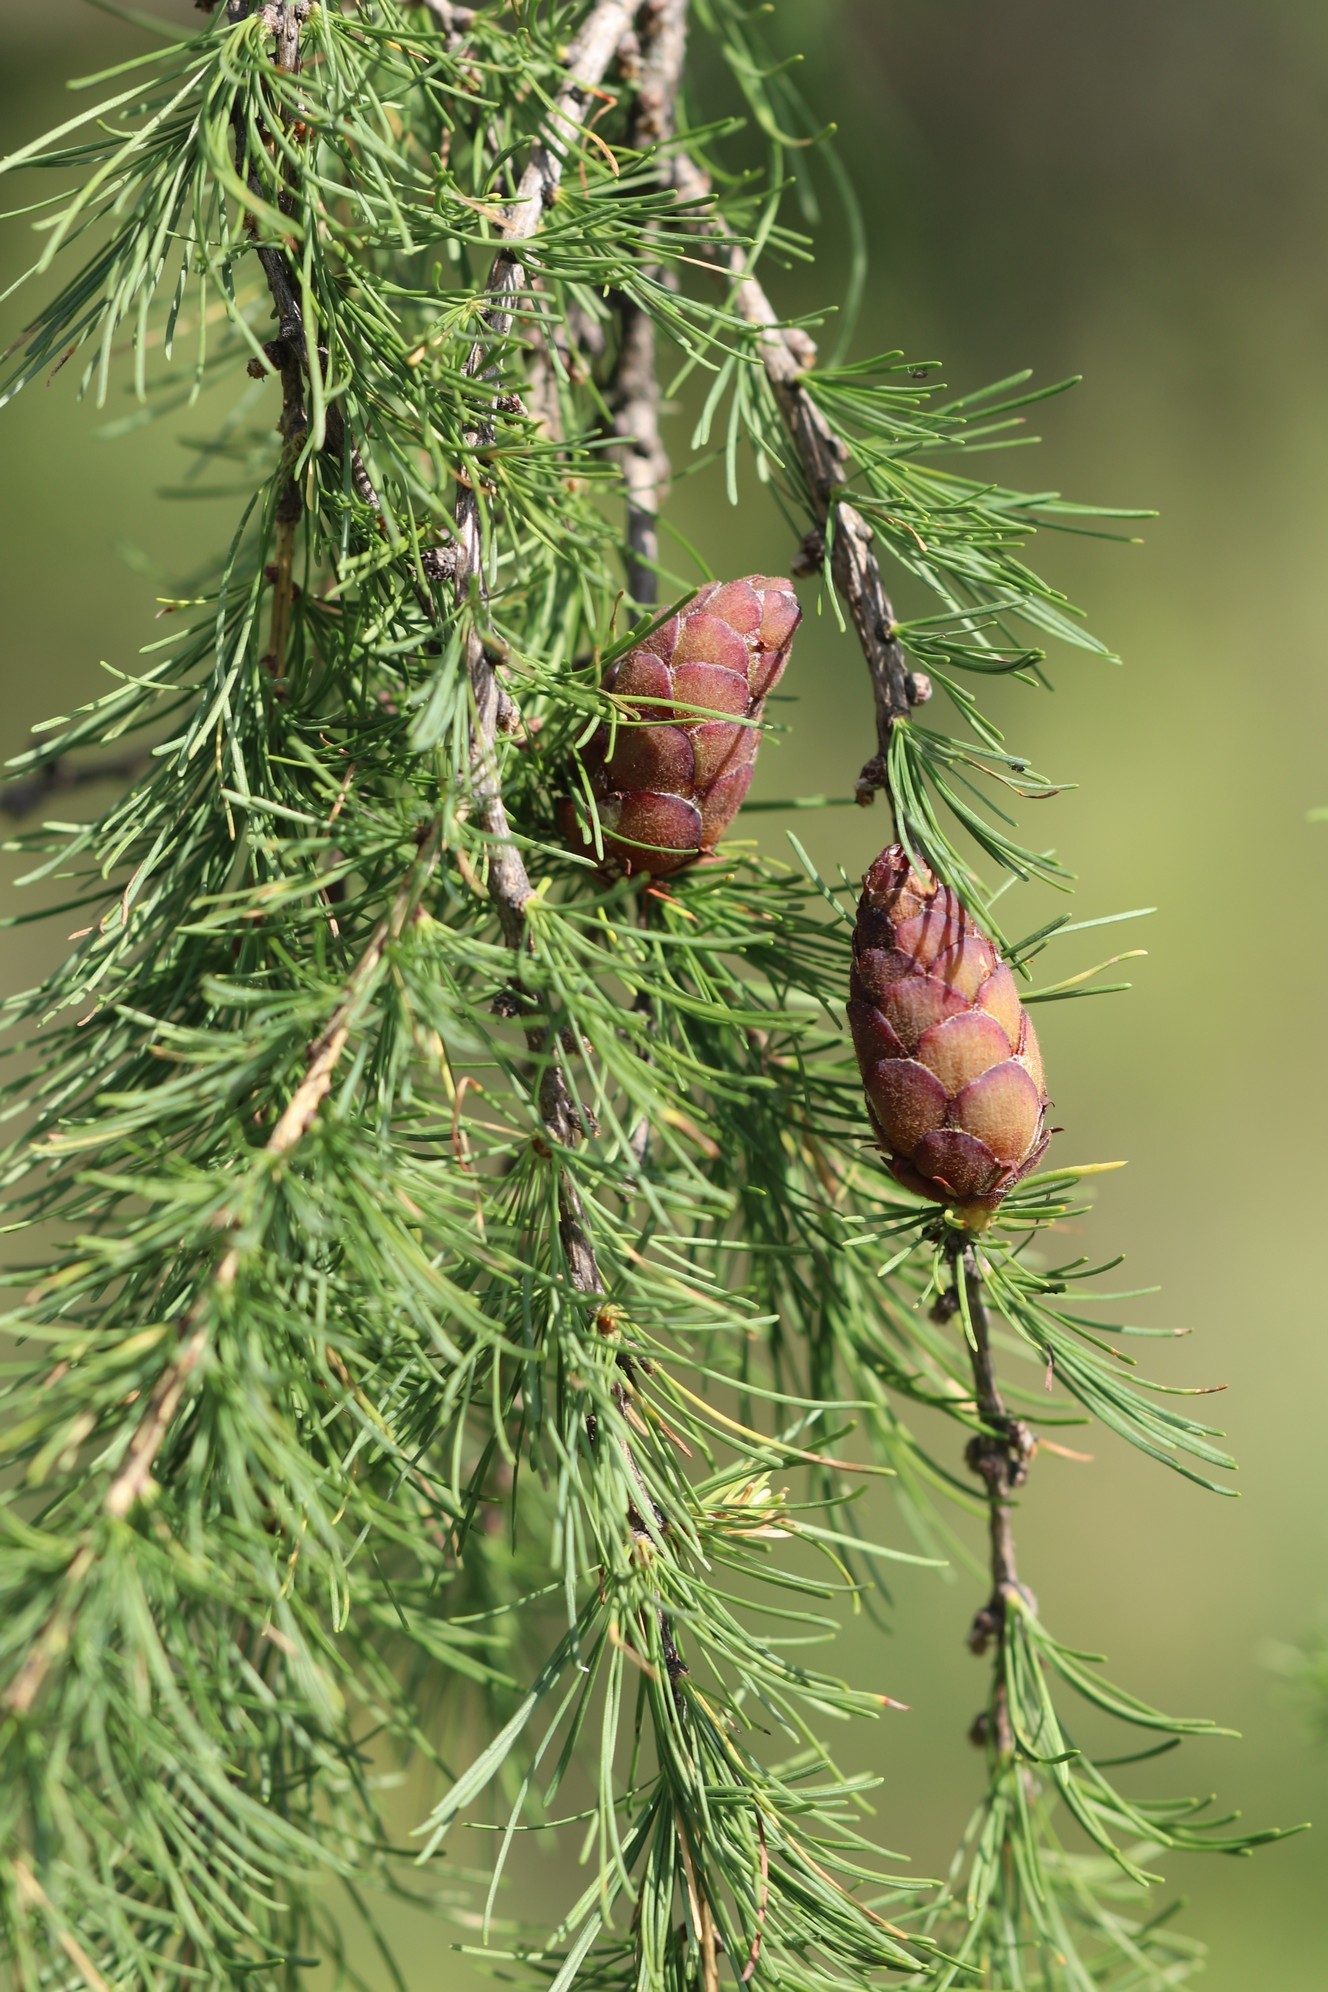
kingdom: Plantae
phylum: Tracheophyta
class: Pinopsida
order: Pinales
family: Pinaceae
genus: Larix
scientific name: Larix sibirica
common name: Siberian larch
